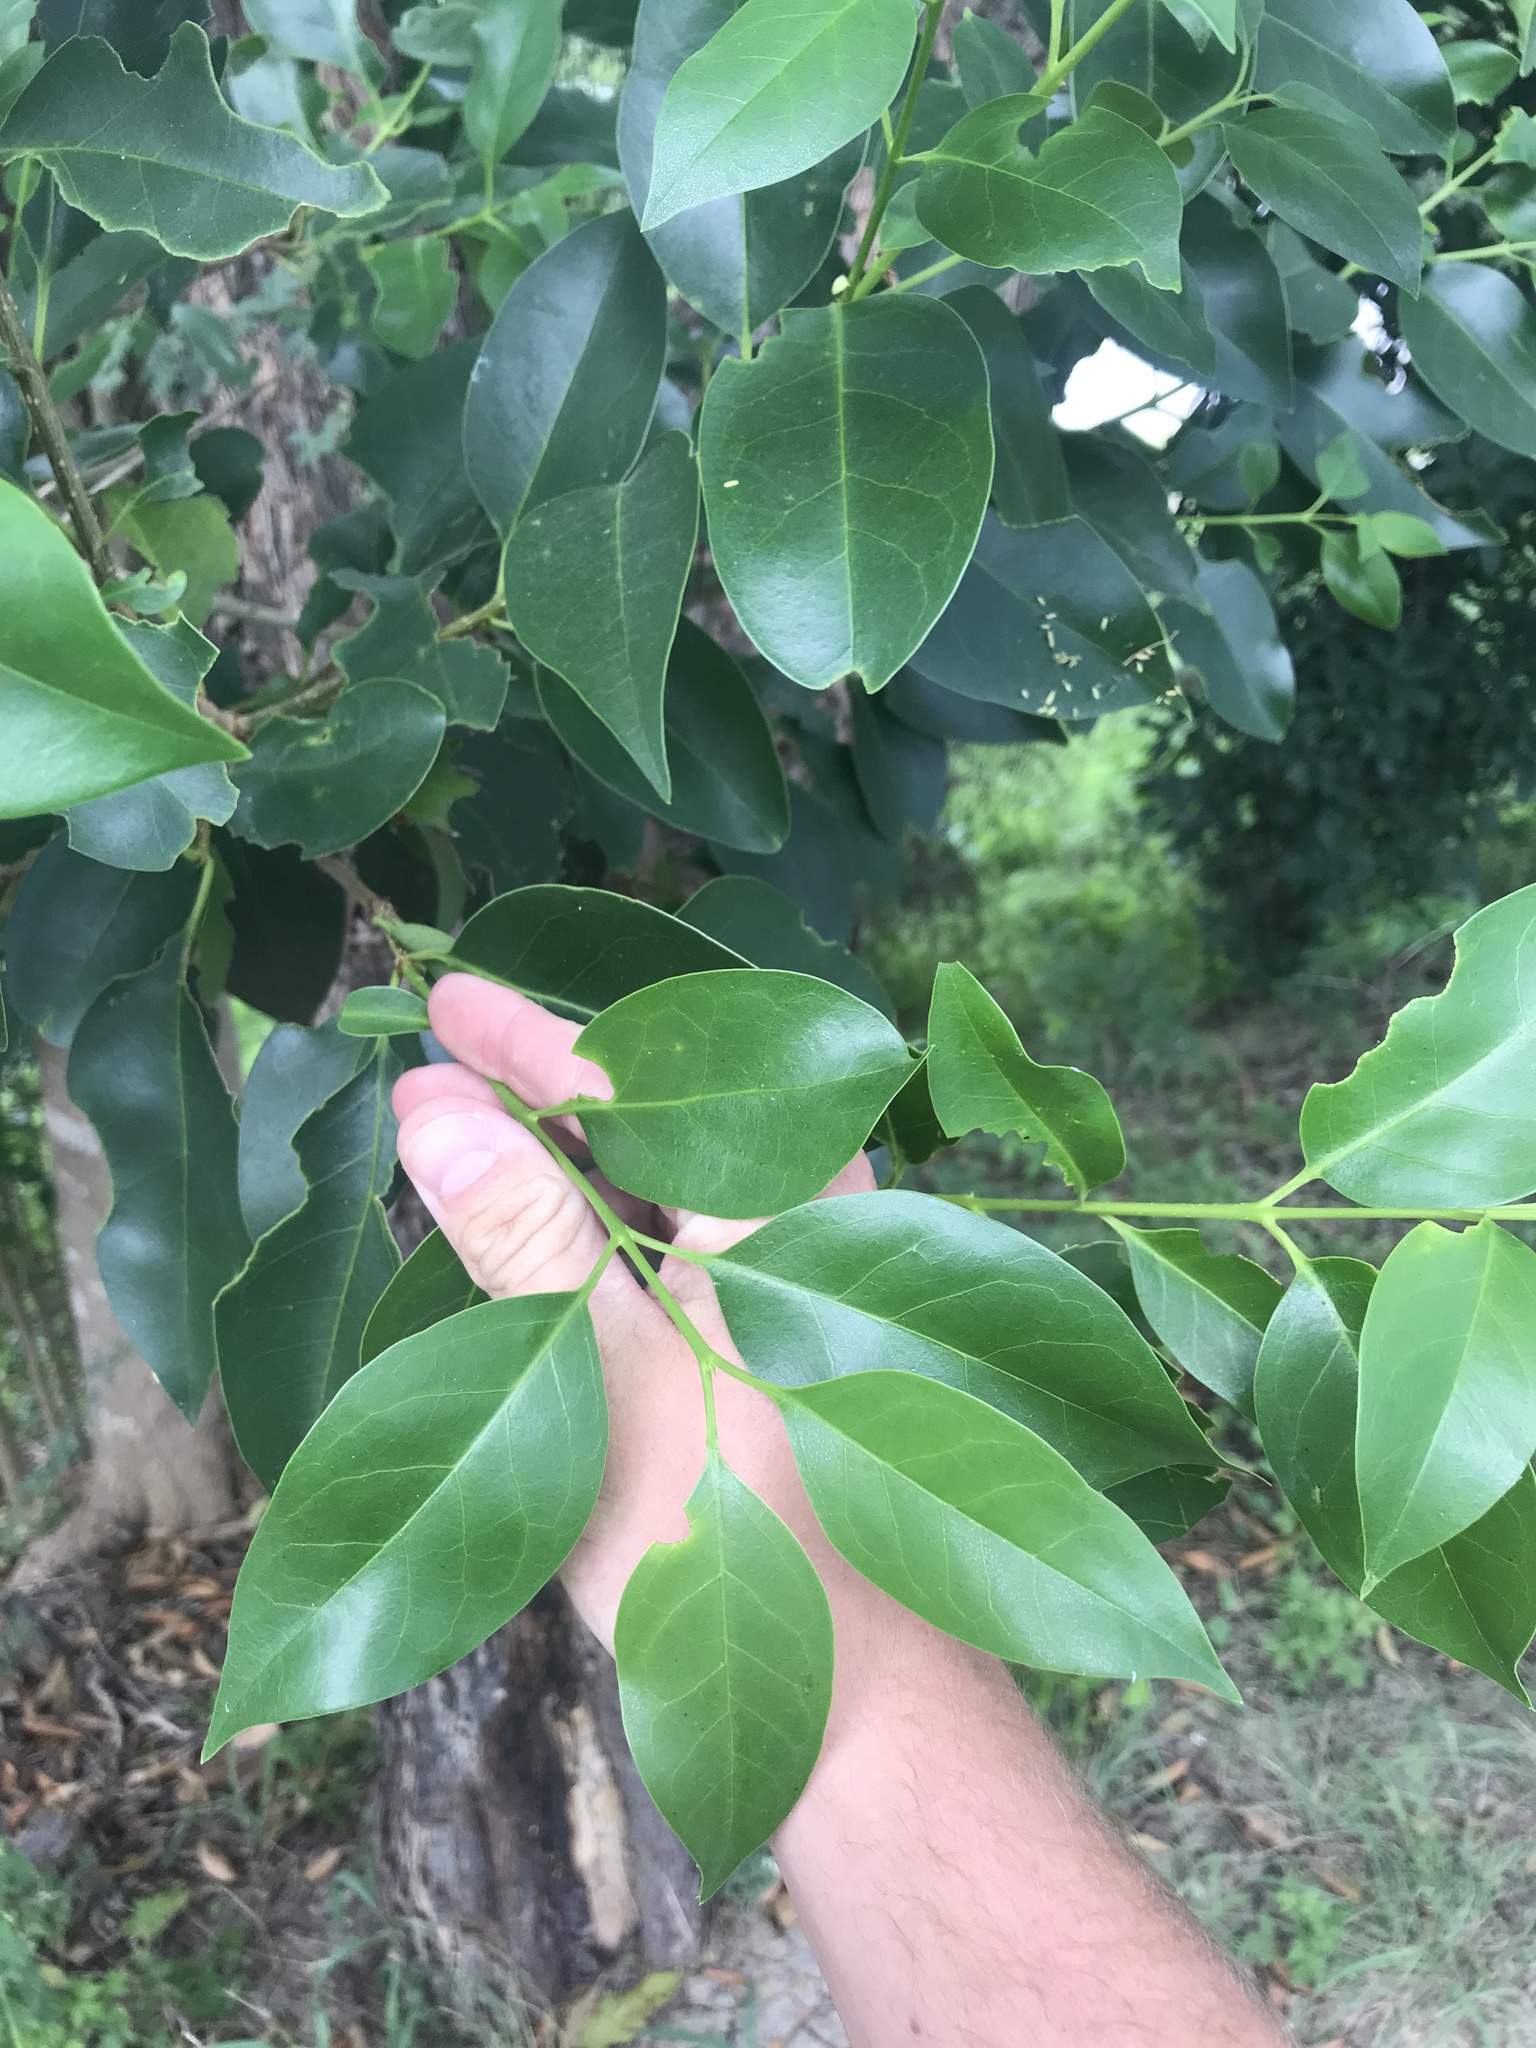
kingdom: Plantae
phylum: Tracheophyta
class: Magnoliopsida
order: Lamiales
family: Oleaceae
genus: Ligustrum
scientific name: Ligustrum lucidum
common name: Glossy privet
